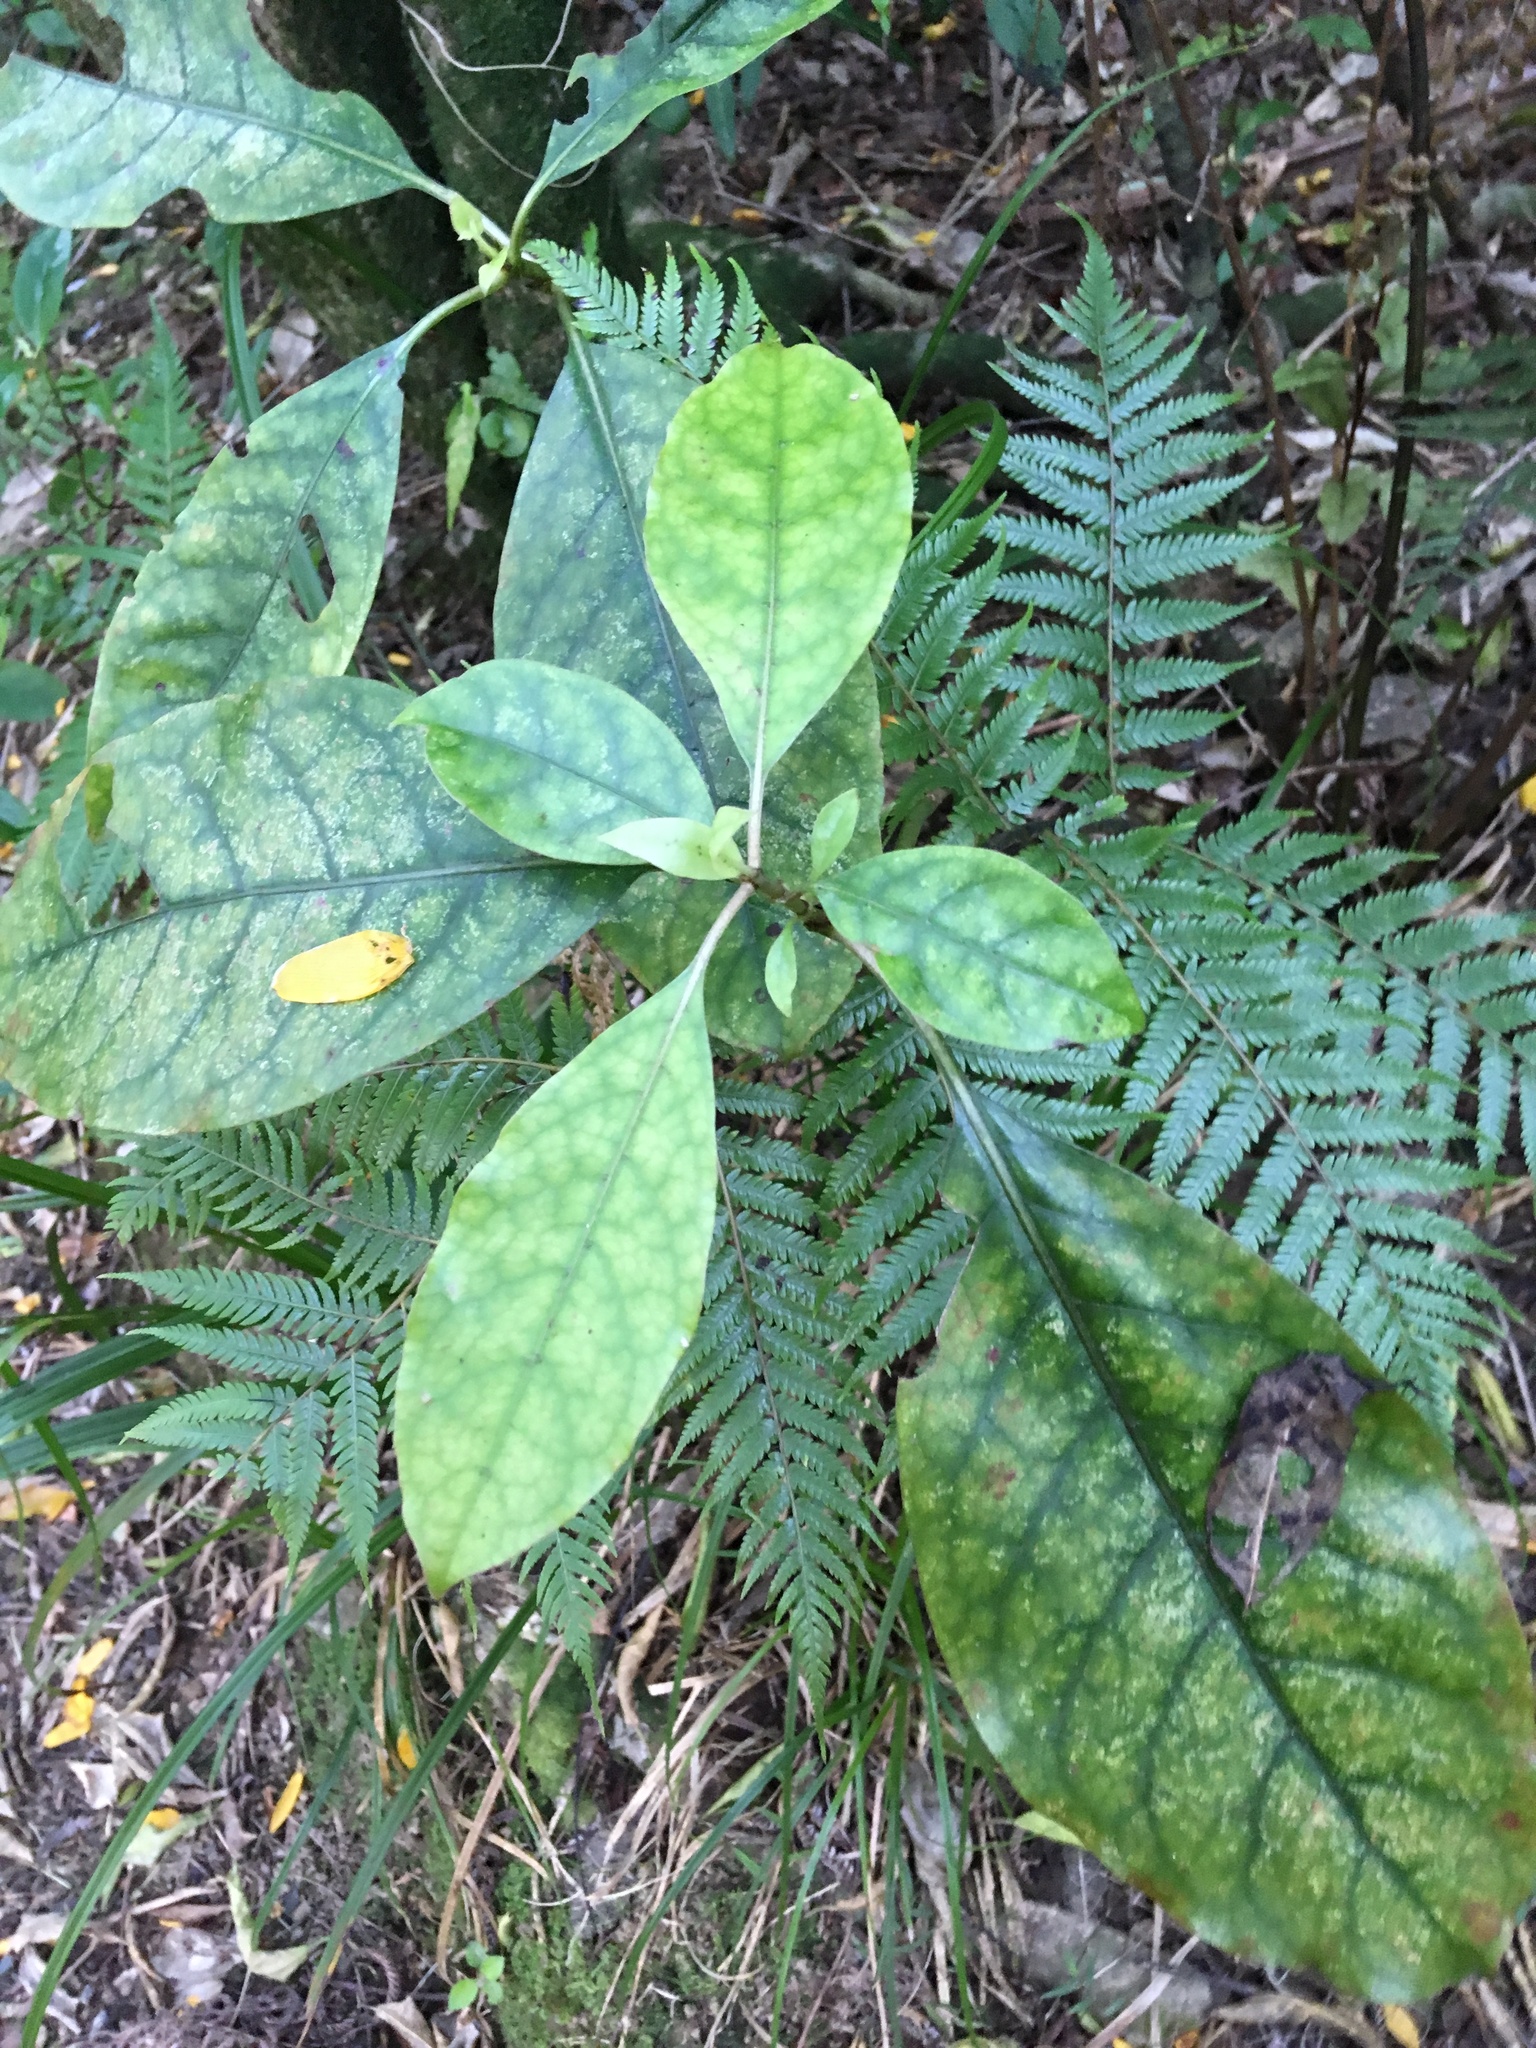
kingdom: Plantae
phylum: Tracheophyta
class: Magnoliopsida
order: Gentianales
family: Rubiaceae
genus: Coprosma
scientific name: Coprosma autumnalis
